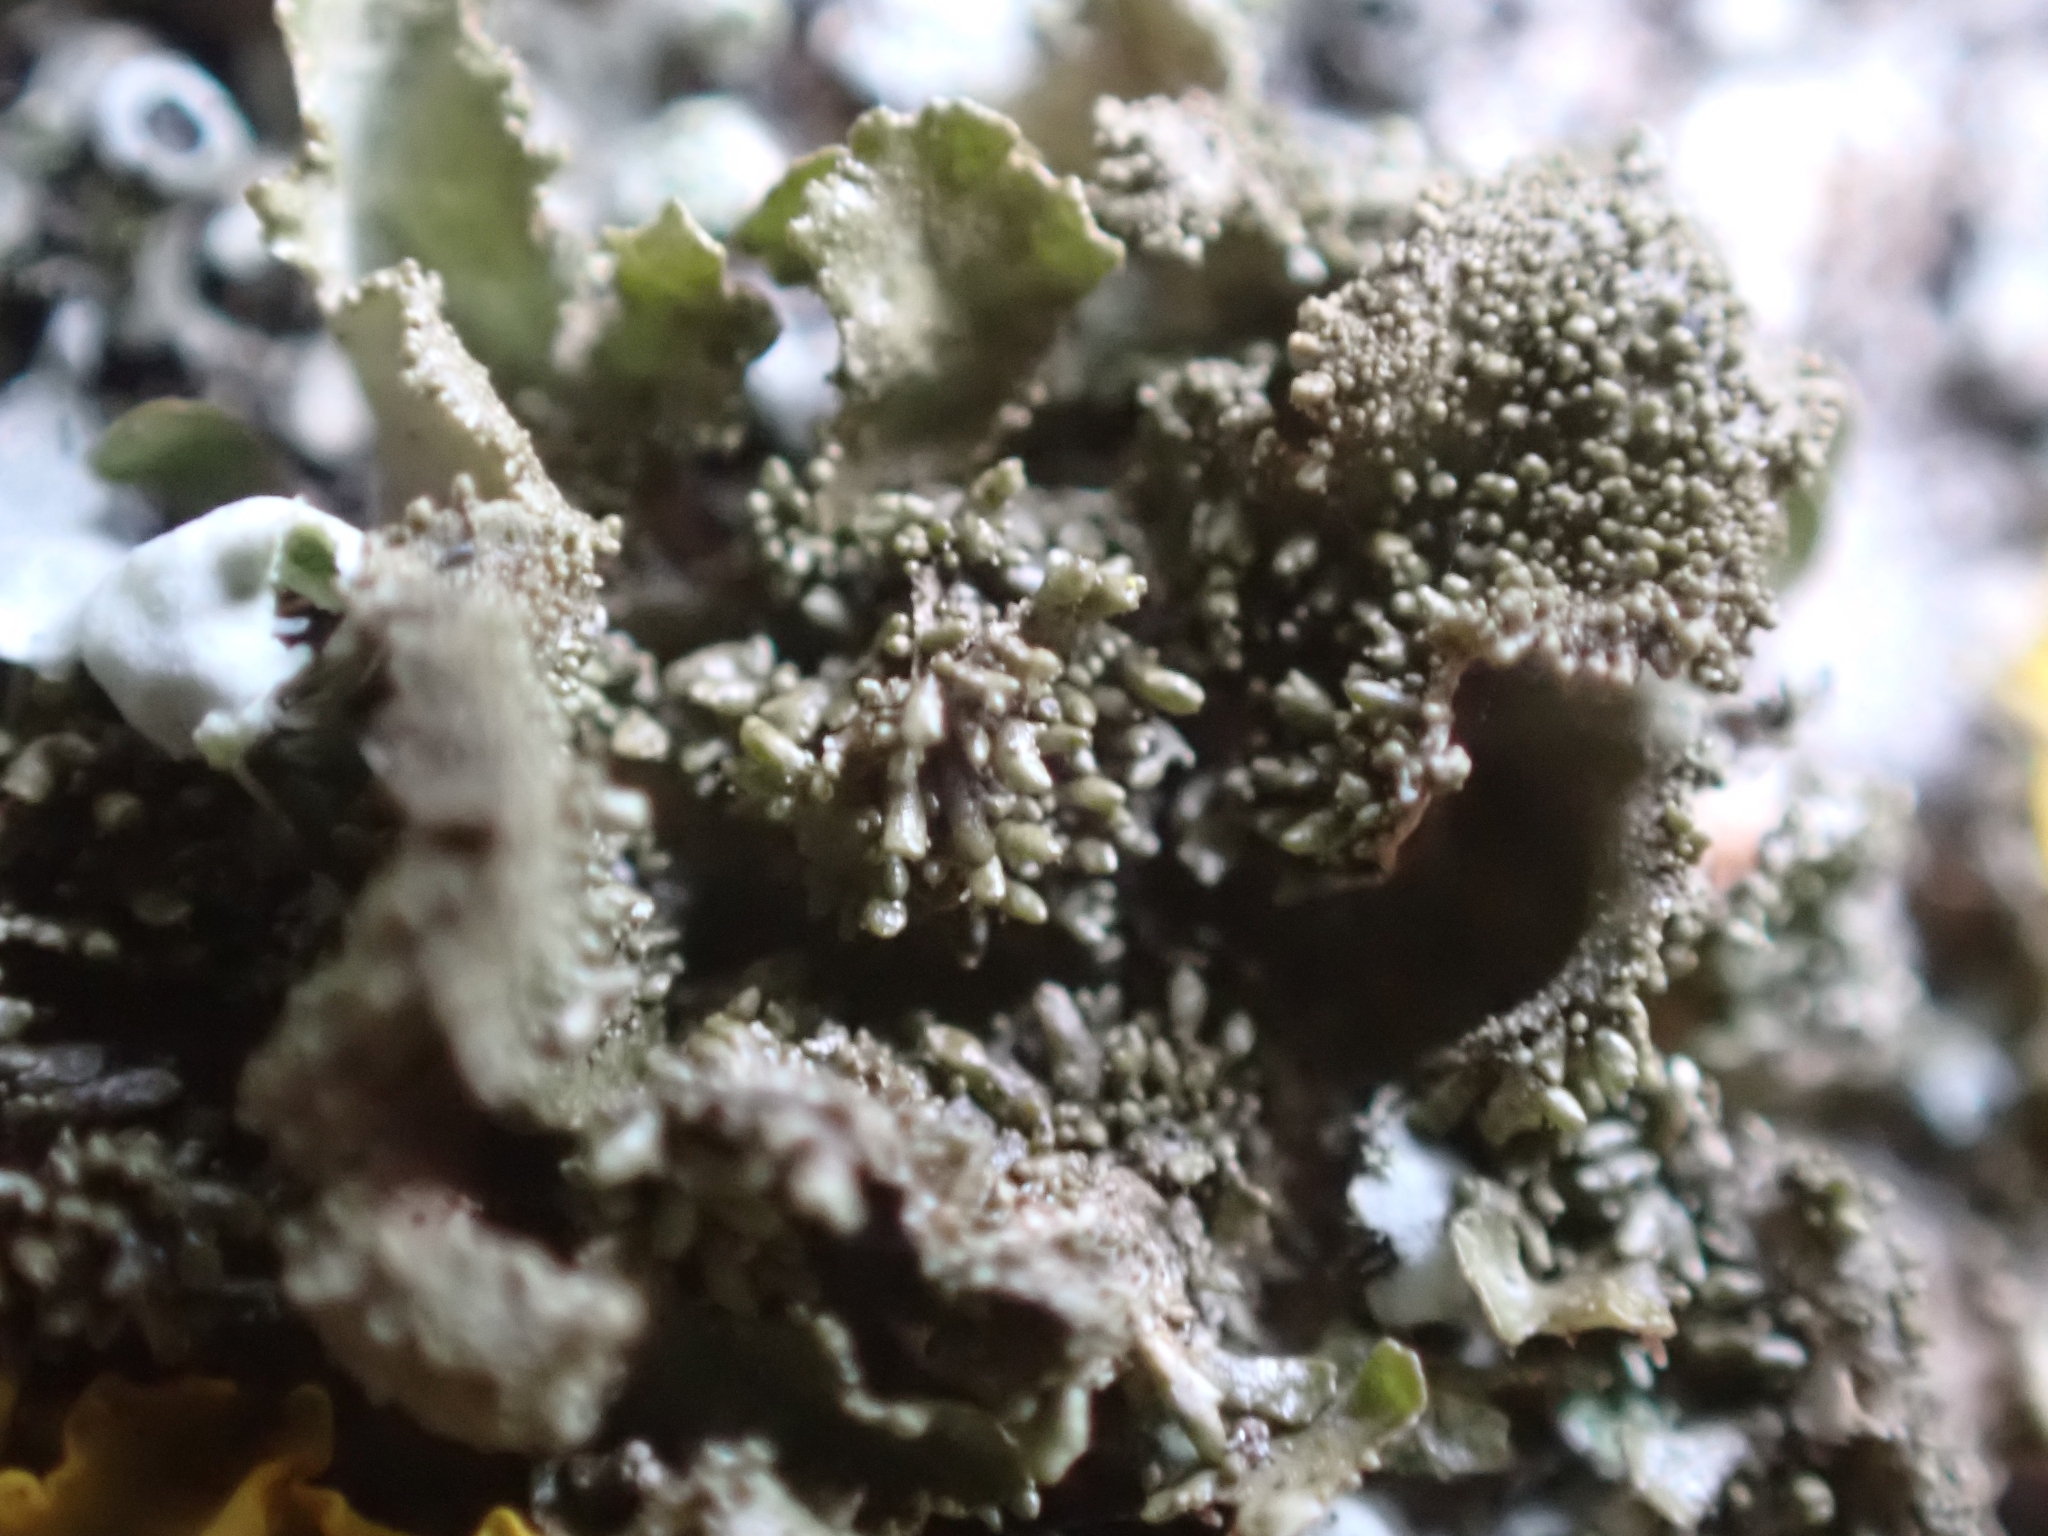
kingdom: Fungi
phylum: Ascomycota
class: Lecanoromycetes
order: Lecanorales
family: Parmeliaceae
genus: Melanohalea
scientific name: Melanohalea exasperatula
